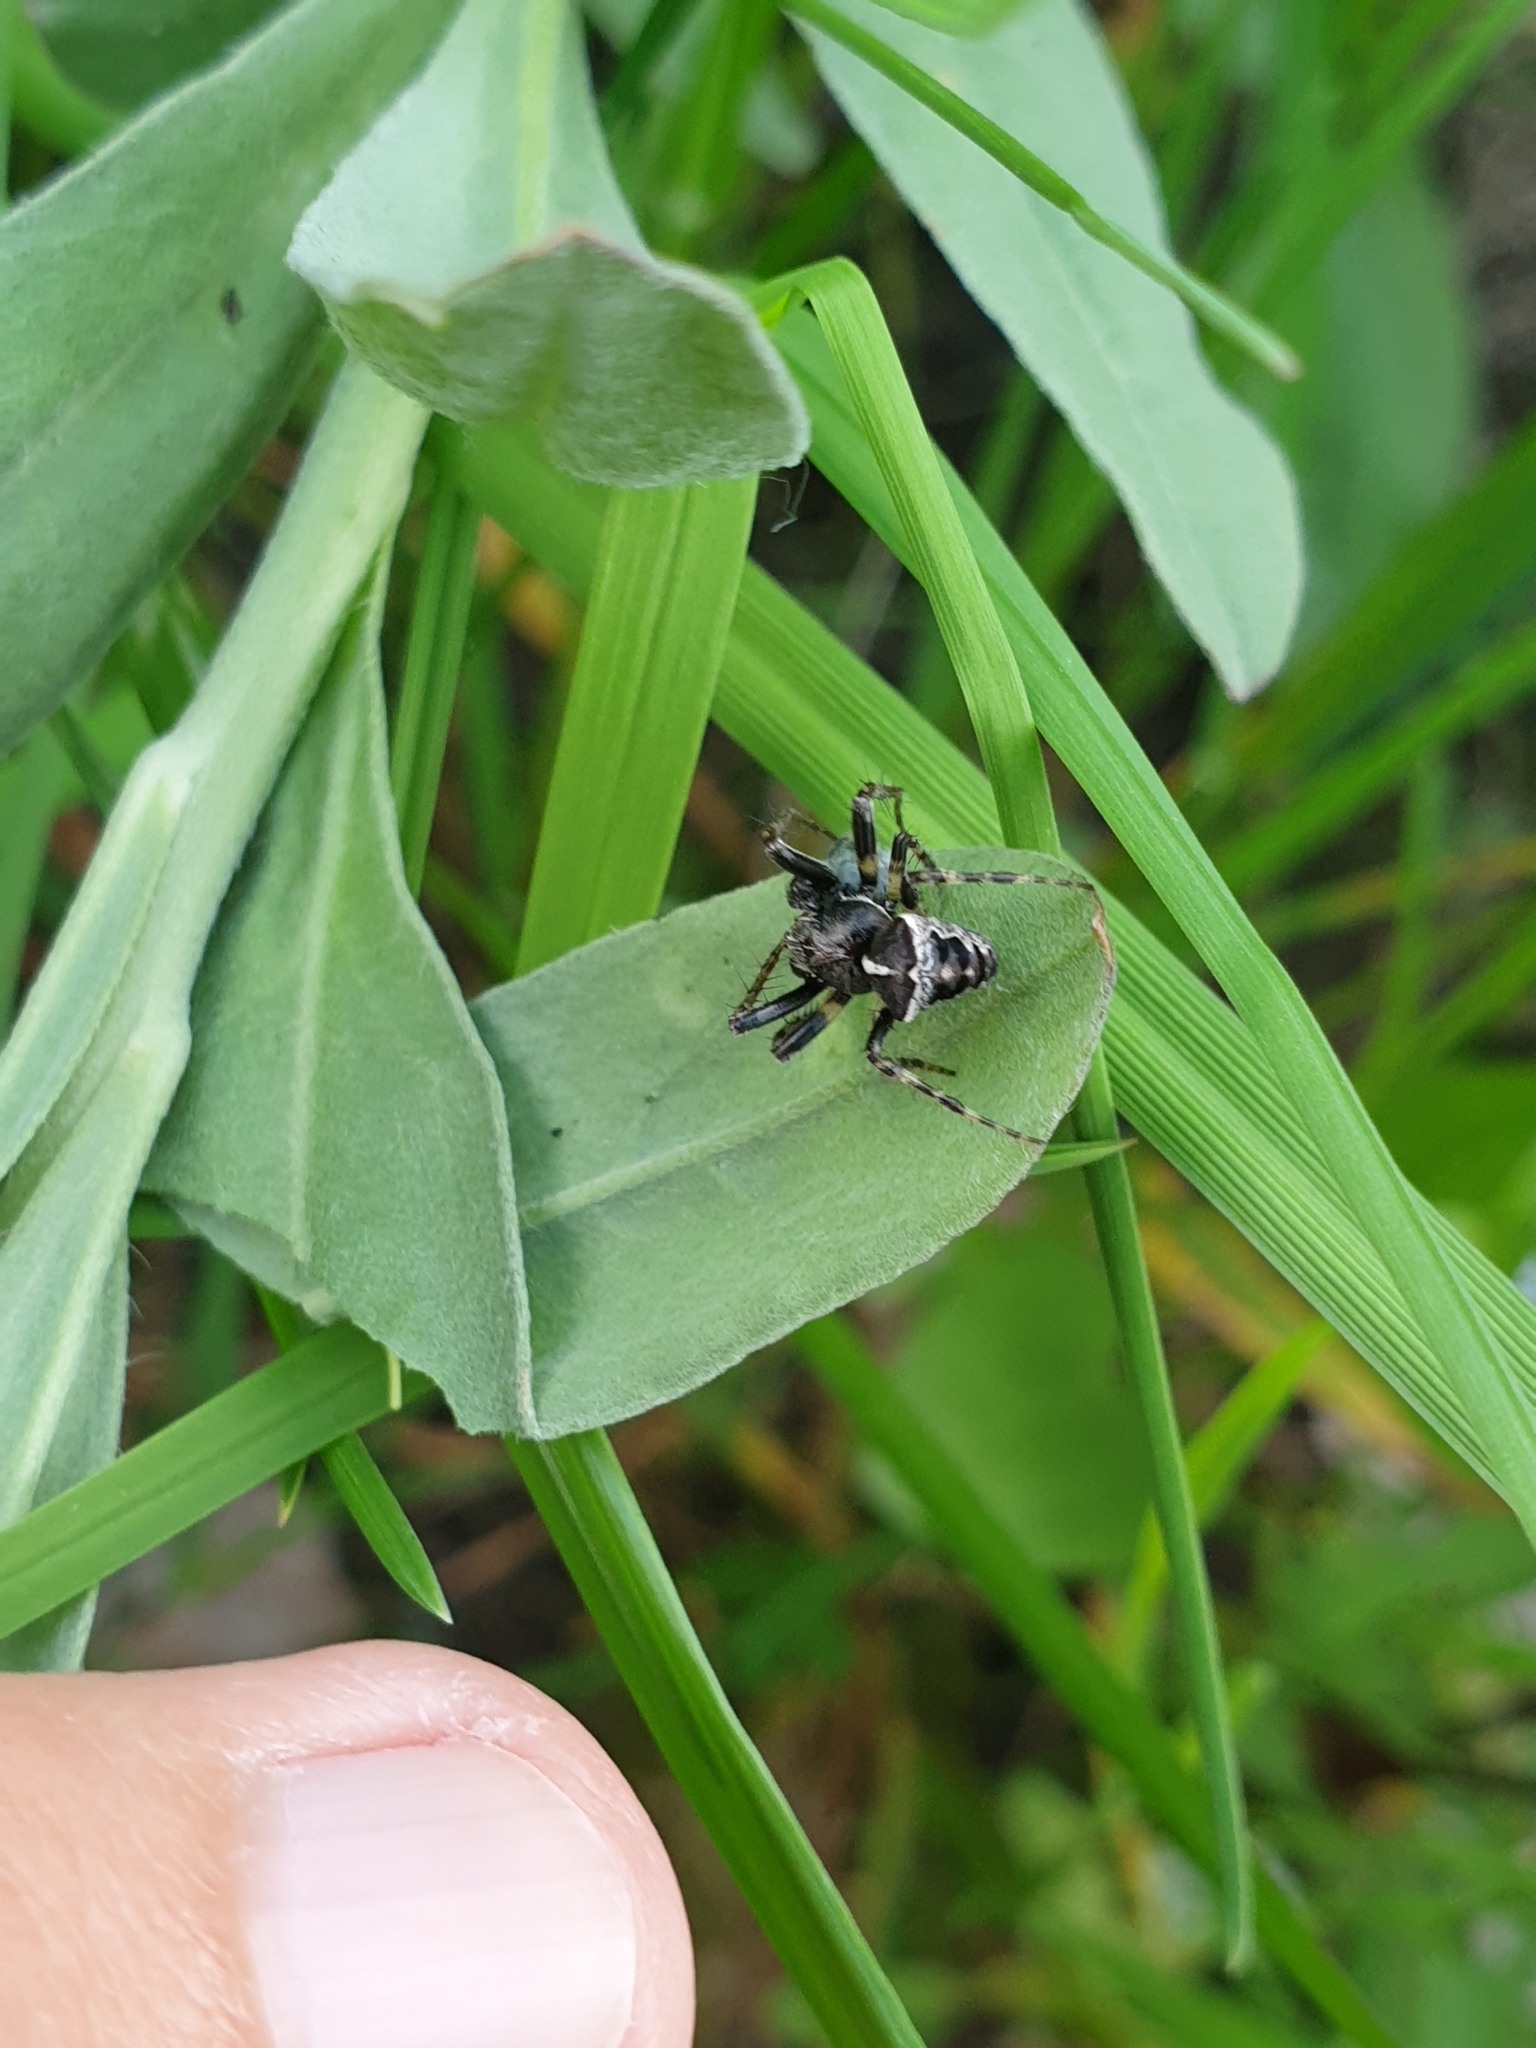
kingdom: Animalia
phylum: Arthropoda
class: Arachnida
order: Araneae
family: Araneidae
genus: Gibbaranea
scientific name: Gibbaranea bituberculata
